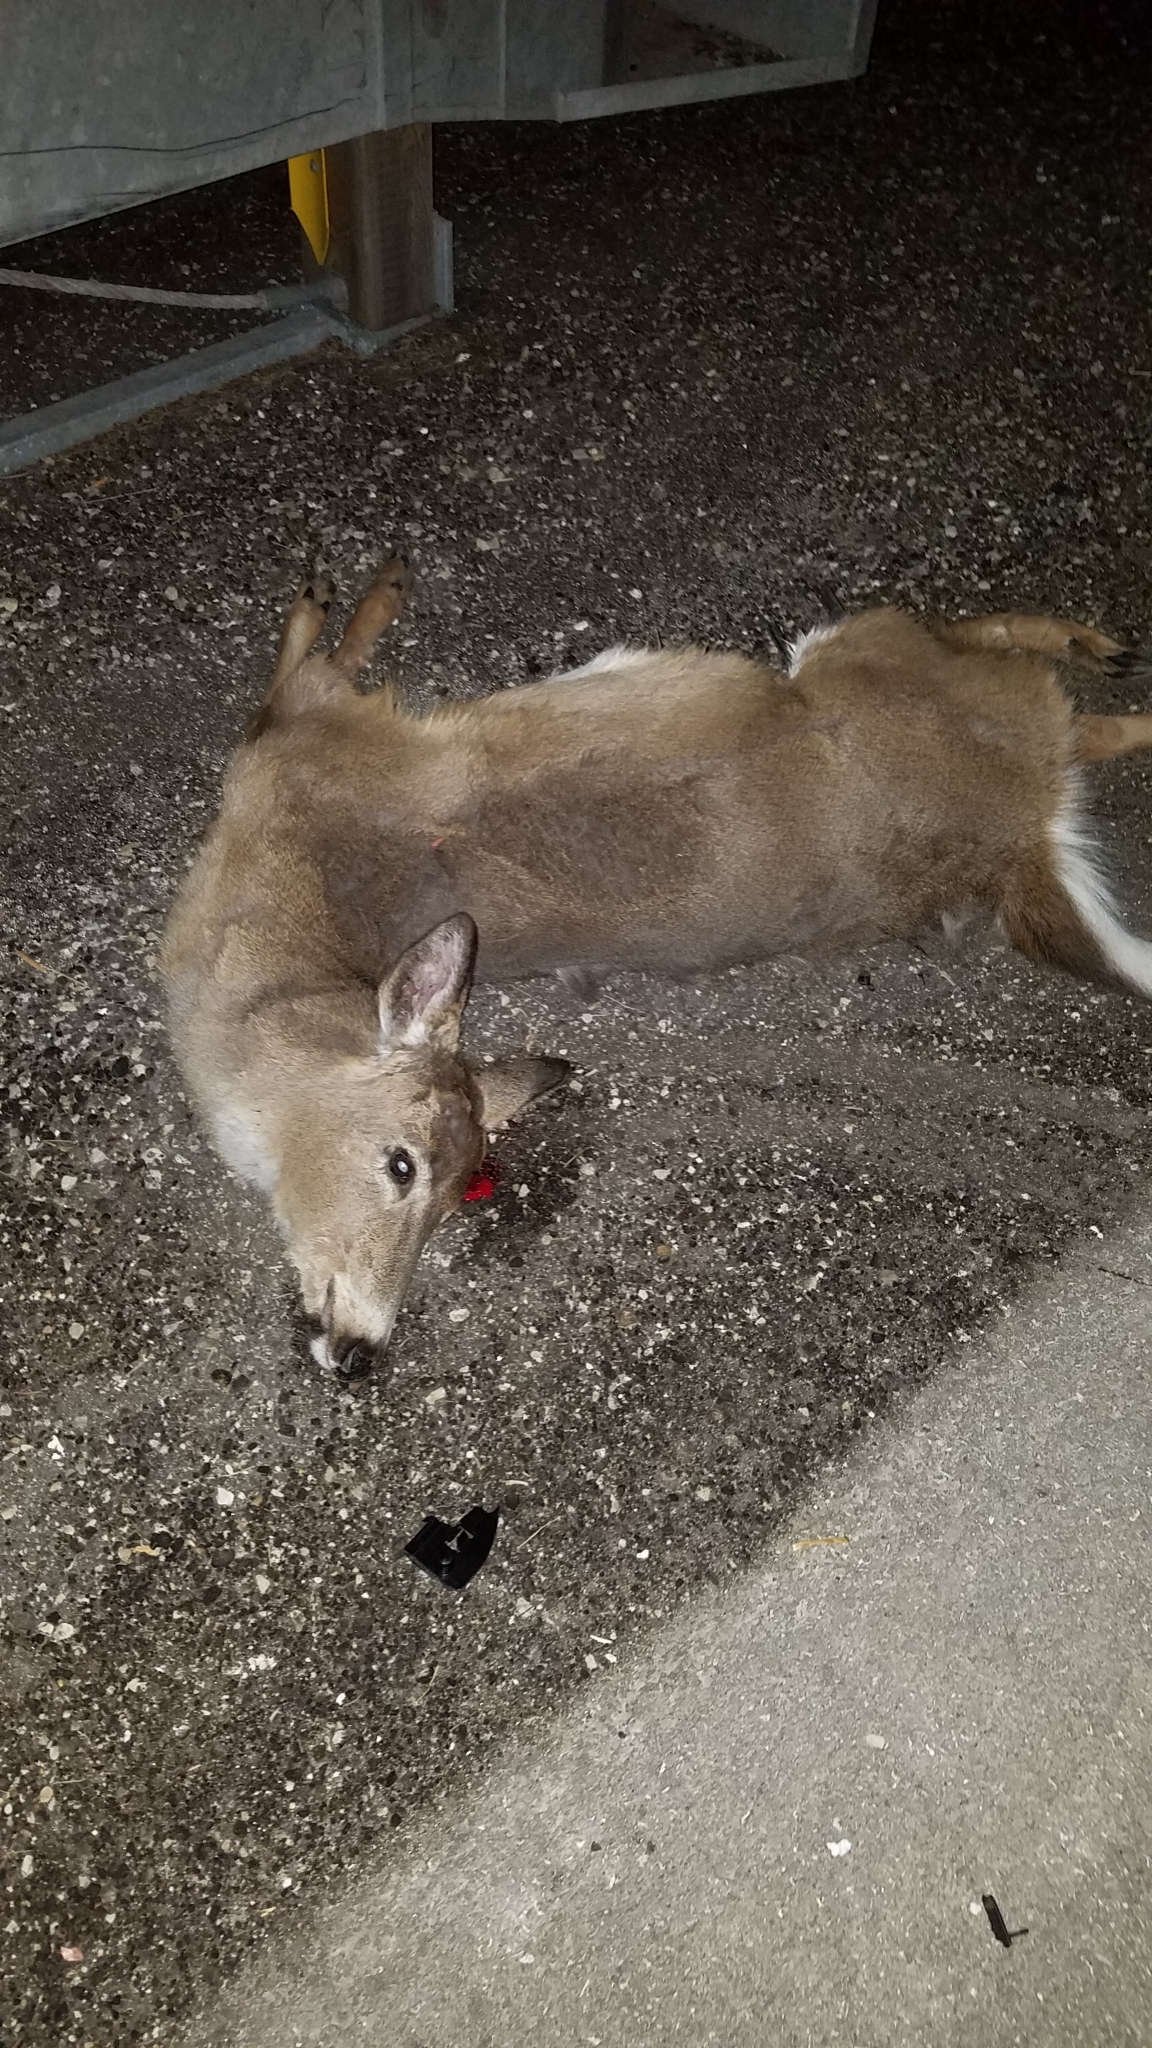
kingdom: Animalia
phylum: Chordata
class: Mammalia
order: Artiodactyla
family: Cervidae
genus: Odocoileus
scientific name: Odocoileus virginianus
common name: White-tailed deer
